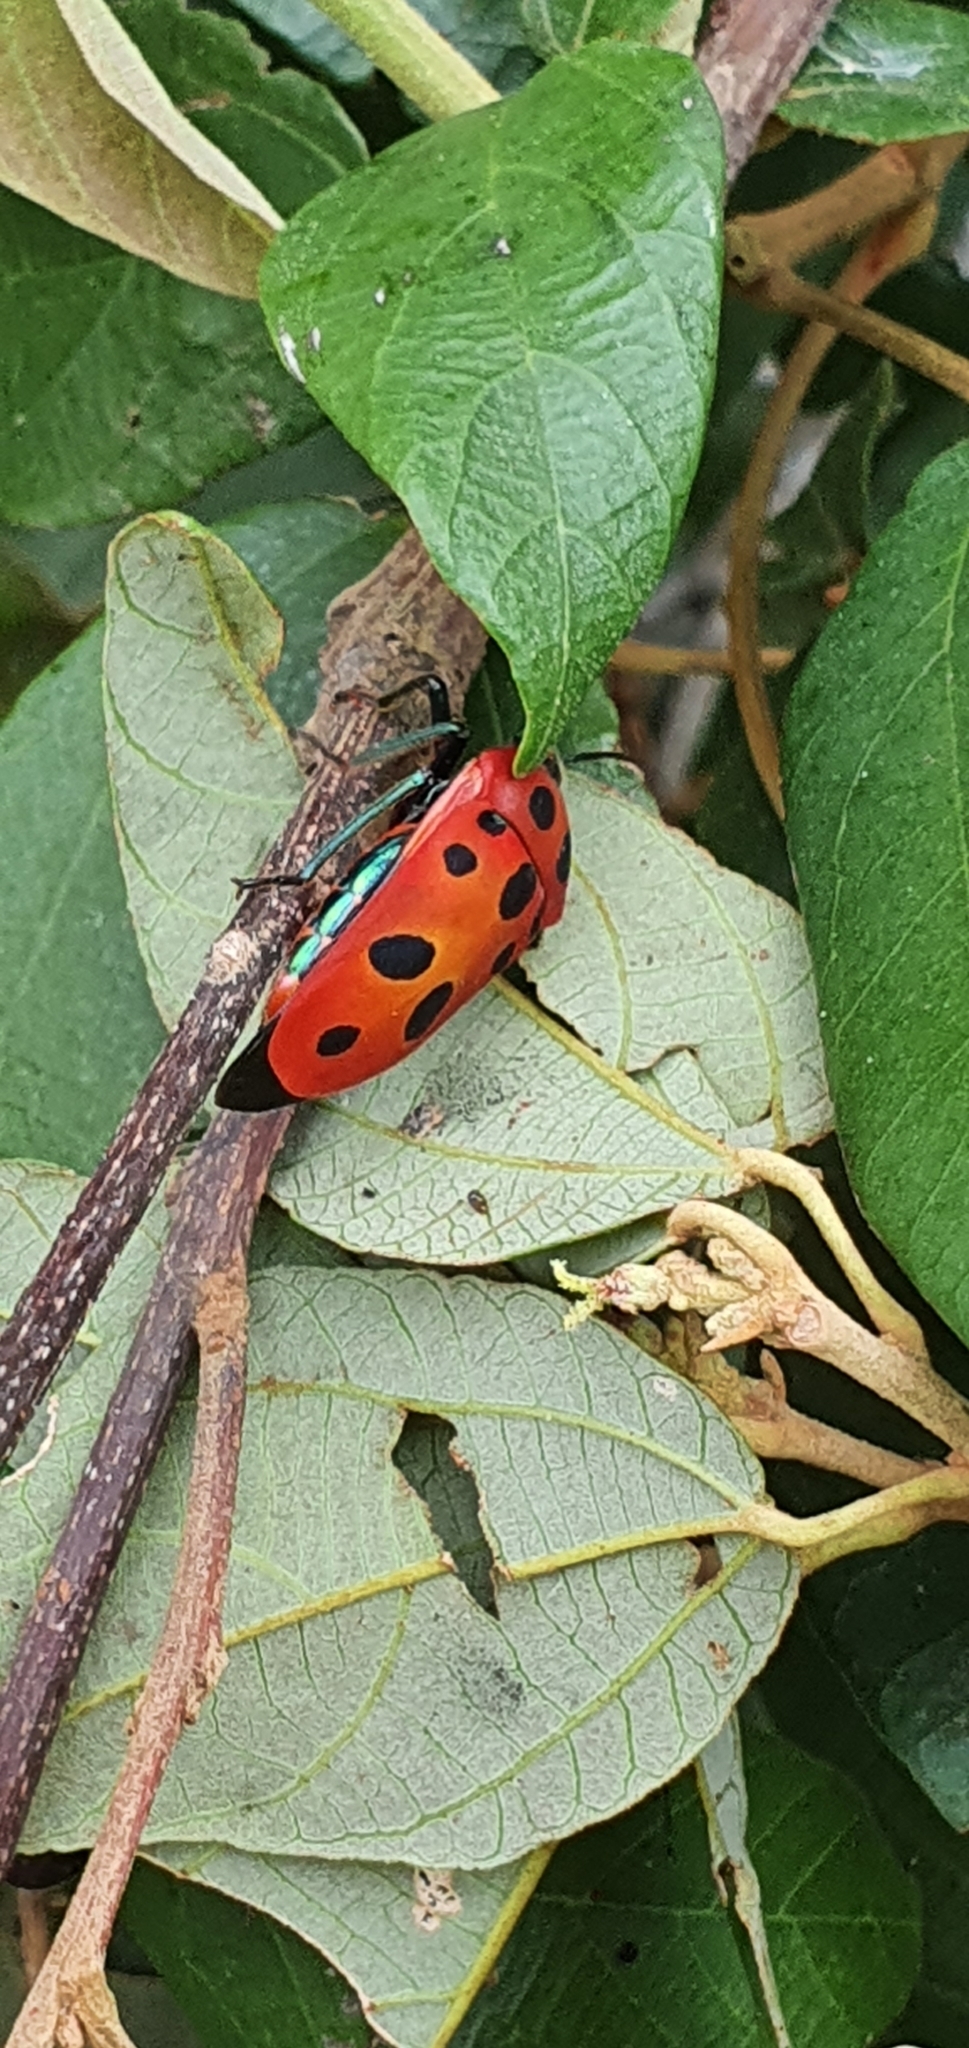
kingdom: Animalia
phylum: Arthropoda
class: Insecta
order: Hemiptera
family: Scutelleridae
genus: Cantao
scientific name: Cantao
